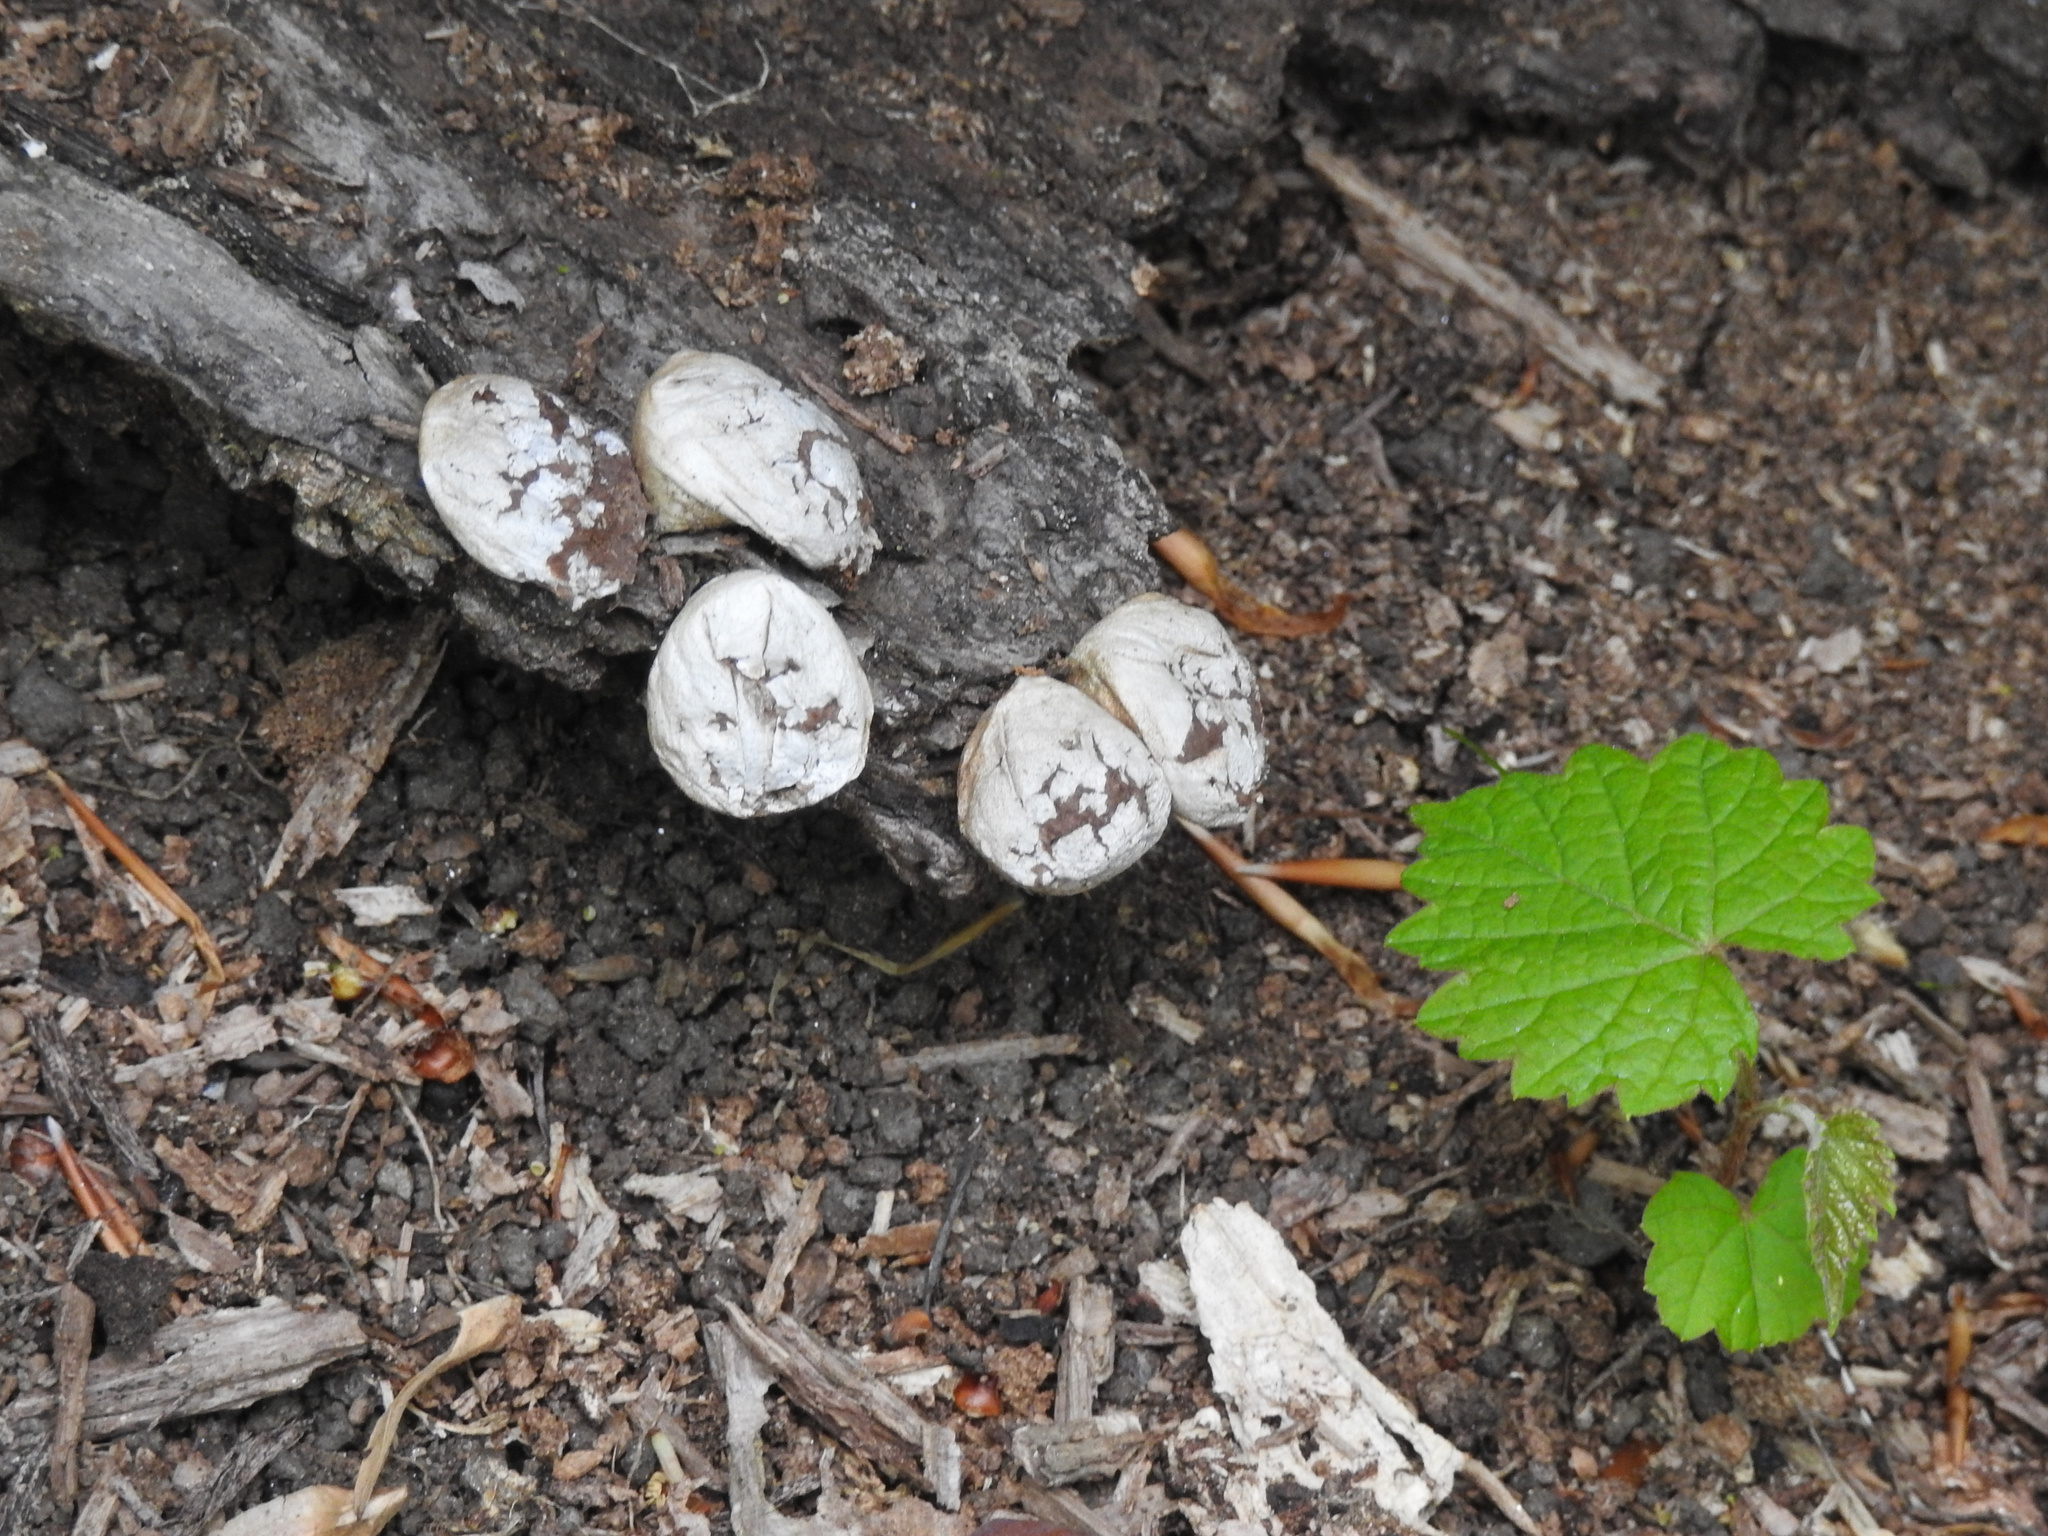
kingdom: Fungi
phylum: Basidiomycota
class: Agaricomycetes
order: Agaricales
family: Lycoperdaceae
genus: Apioperdon
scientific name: Apioperdon pyriforme
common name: Pear-shaped puffball
